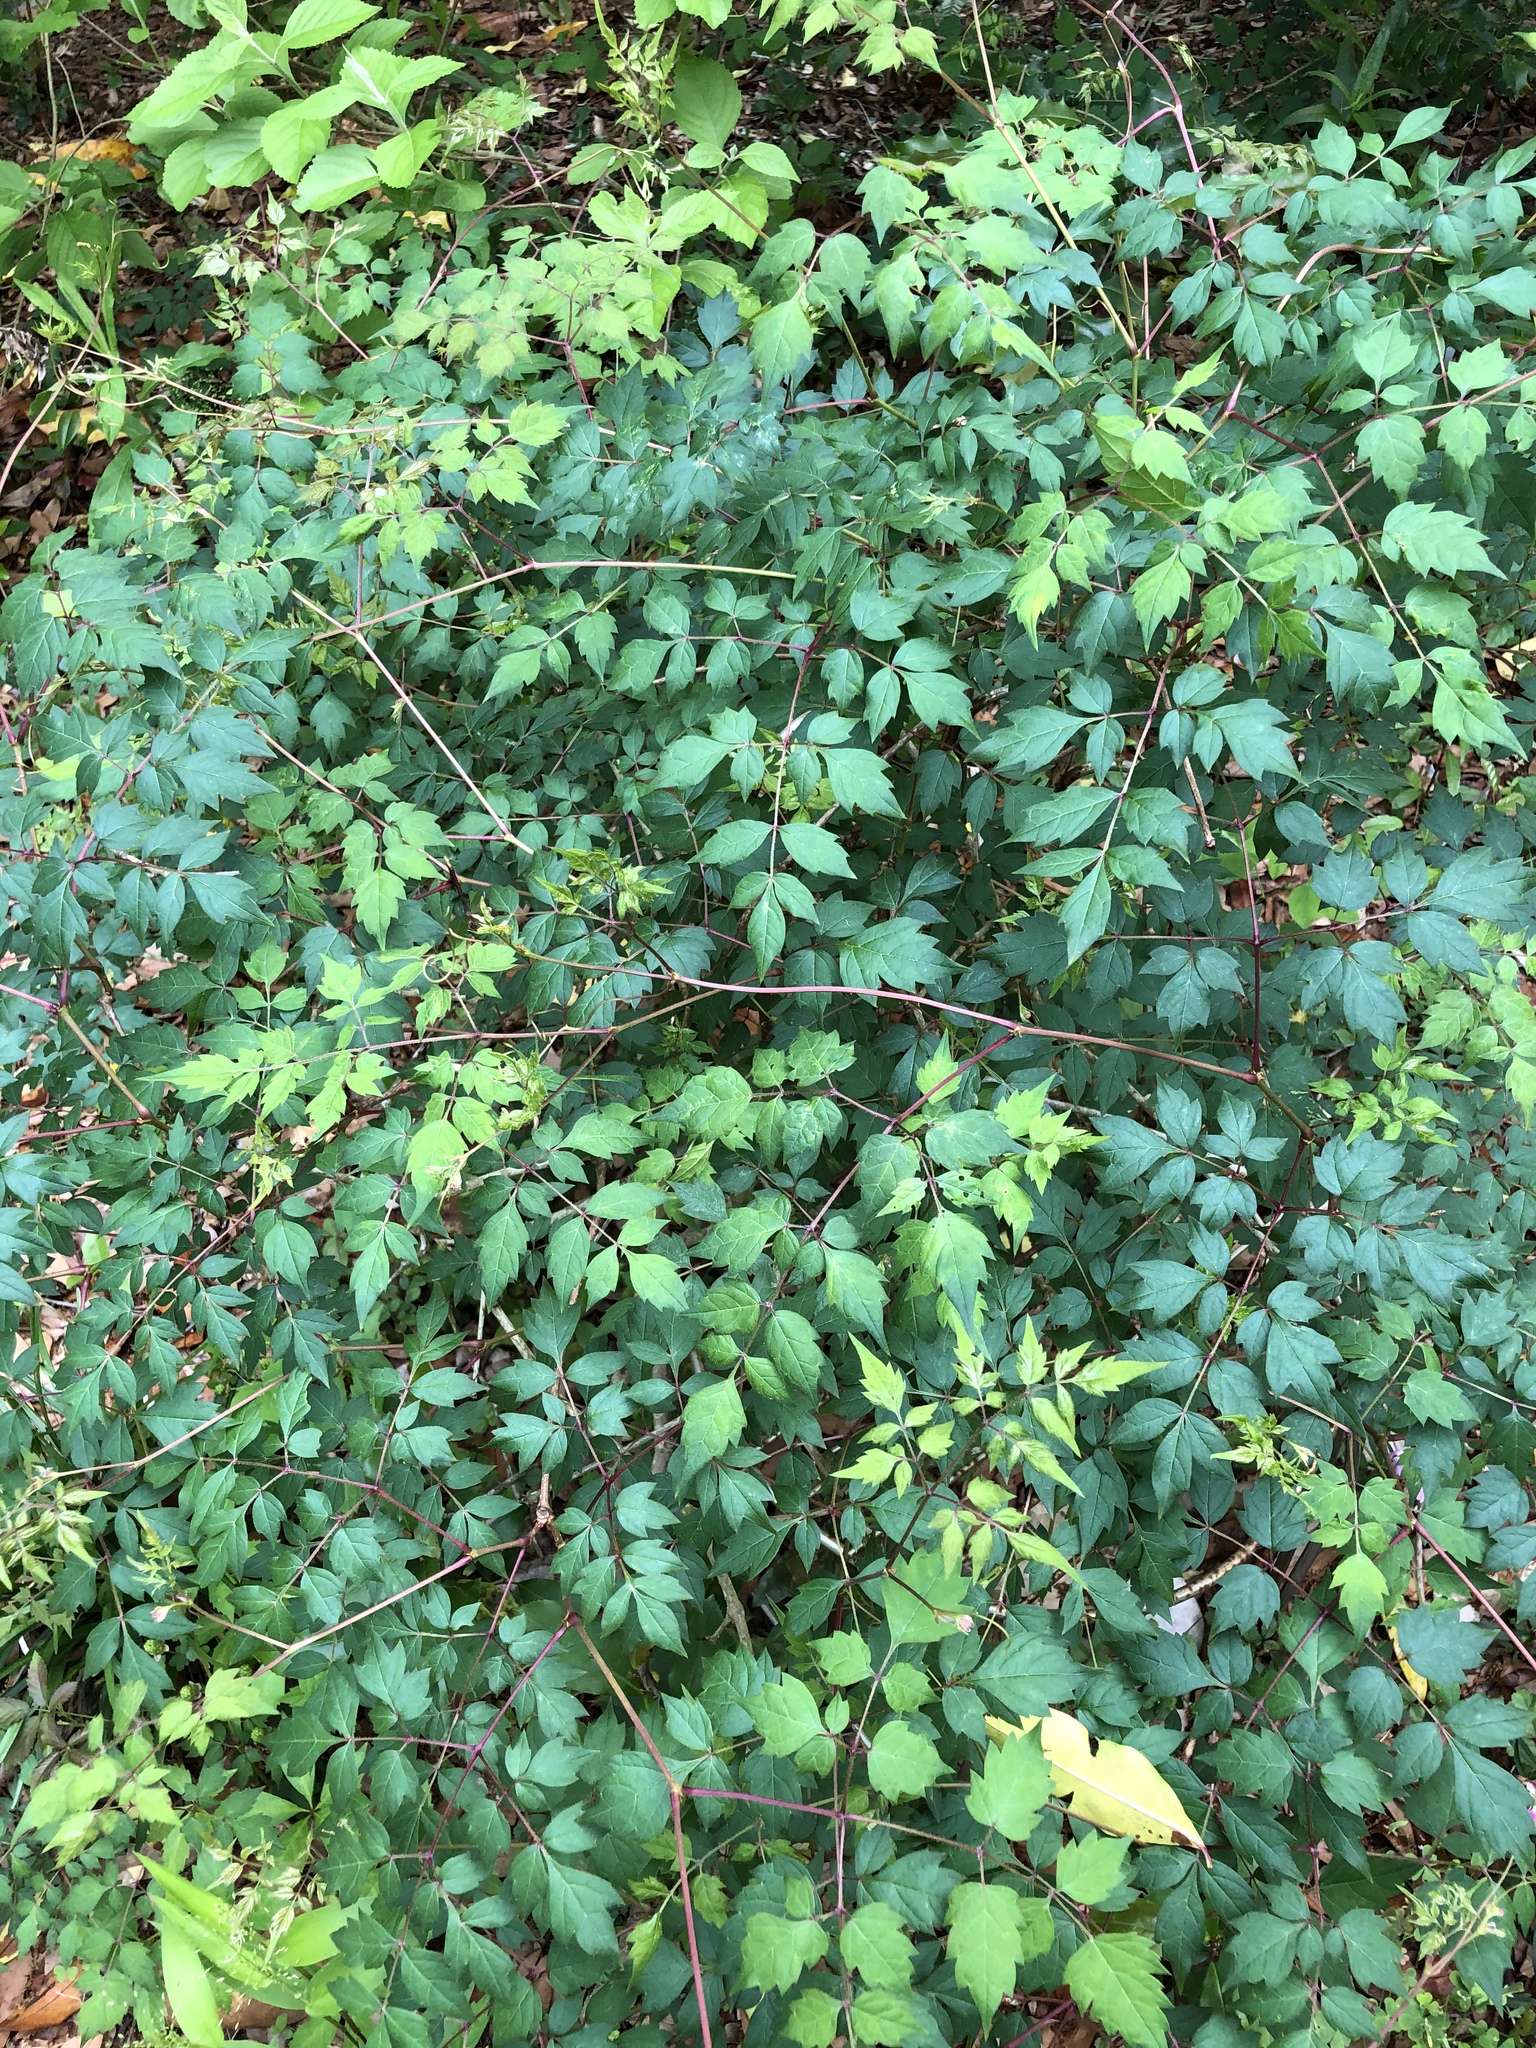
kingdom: Plantae
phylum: Tracheophyta
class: Magnoliopsida
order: Vitales
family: Vitaceae
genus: Nekemias
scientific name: Nekemias arborea
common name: Peppervine
